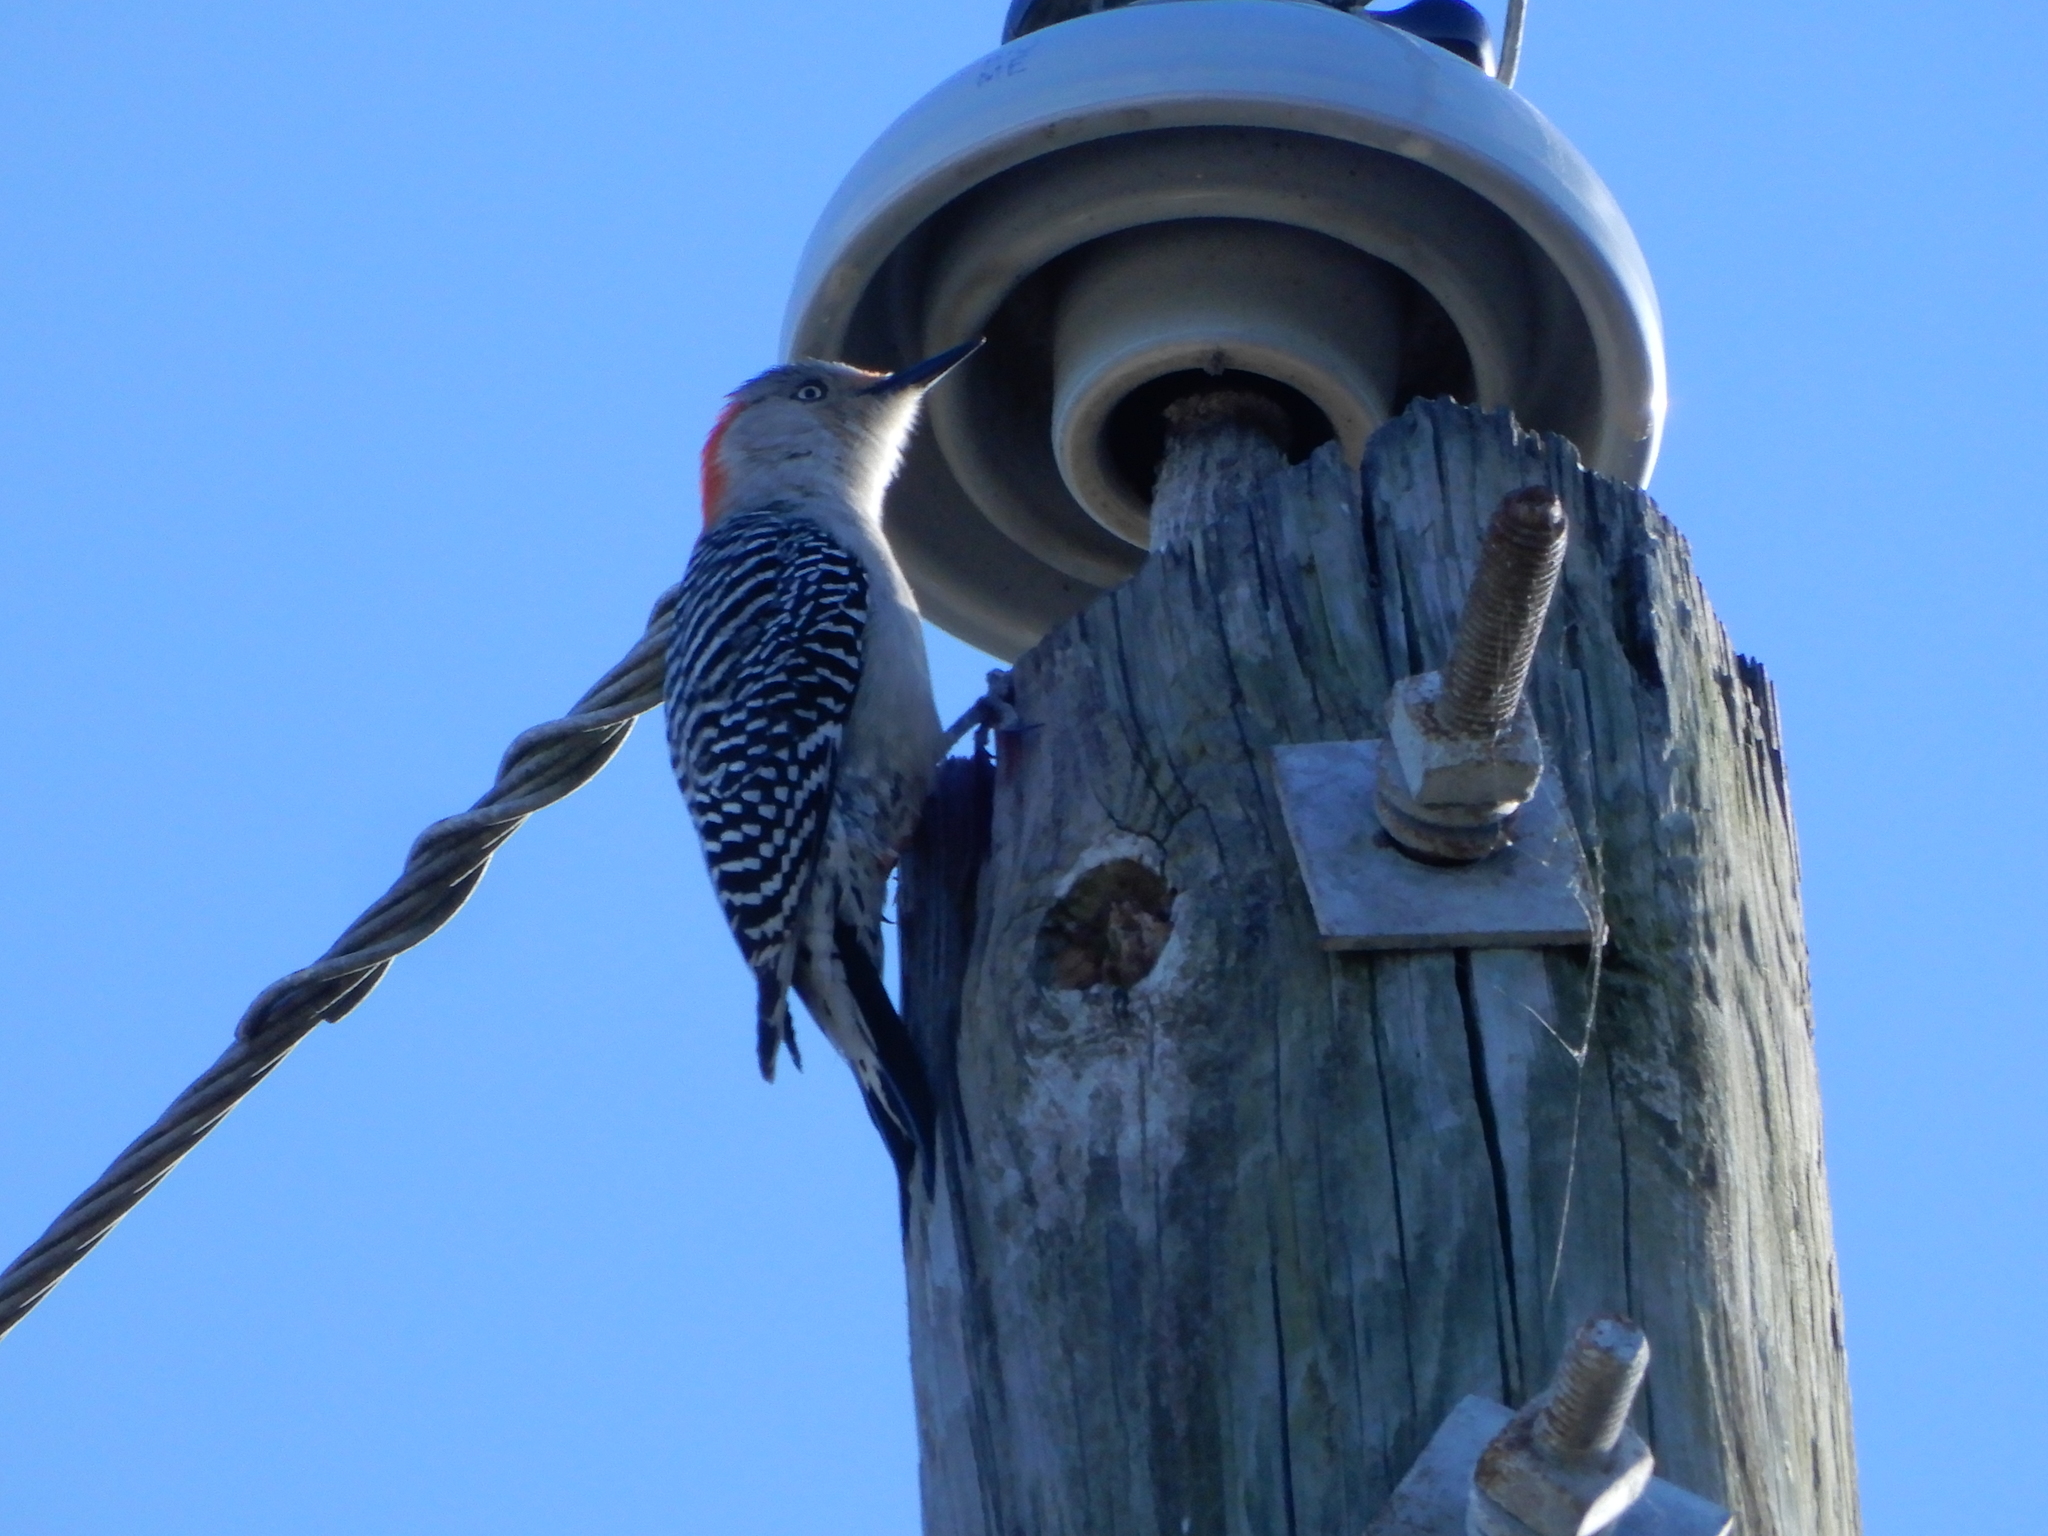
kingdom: Animalia
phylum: Chordata
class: Aves
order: Piciformes
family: Picidae
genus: Melanerpes
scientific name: Melanerpes carolinus
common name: Red-bellied woodpecker
